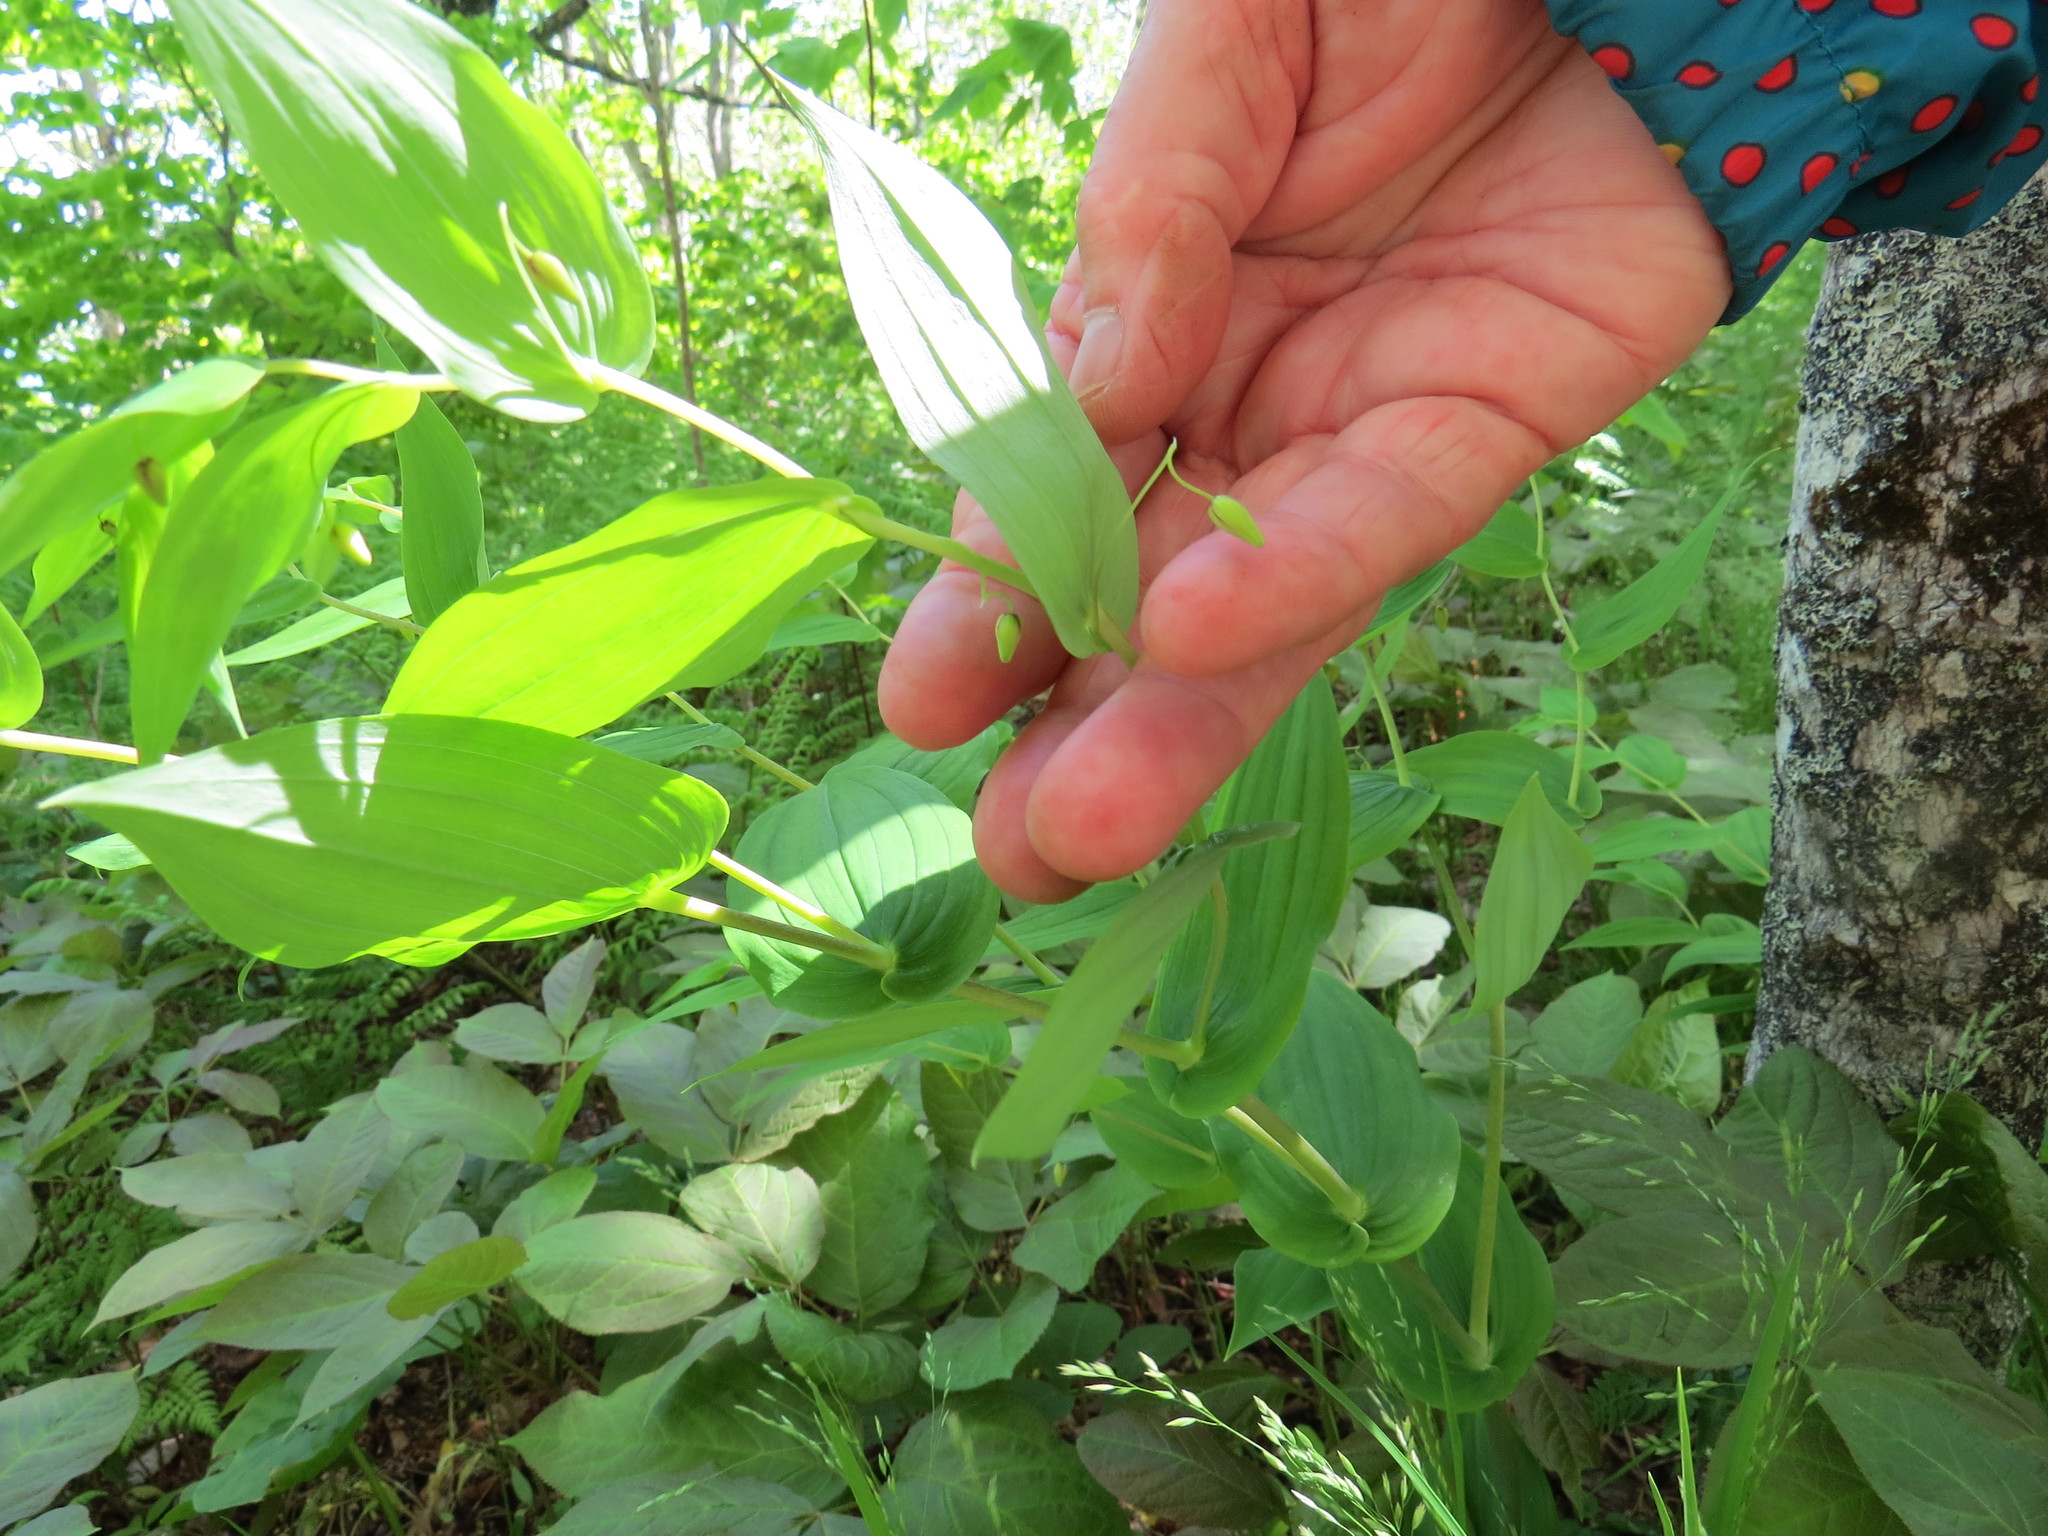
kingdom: Plantae
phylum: Tracheophyta
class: Liliopsida
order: Liliales
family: Liliaceae
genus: Streptopus
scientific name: Streptopus amplexifolius
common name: Clasp twisted stalk
